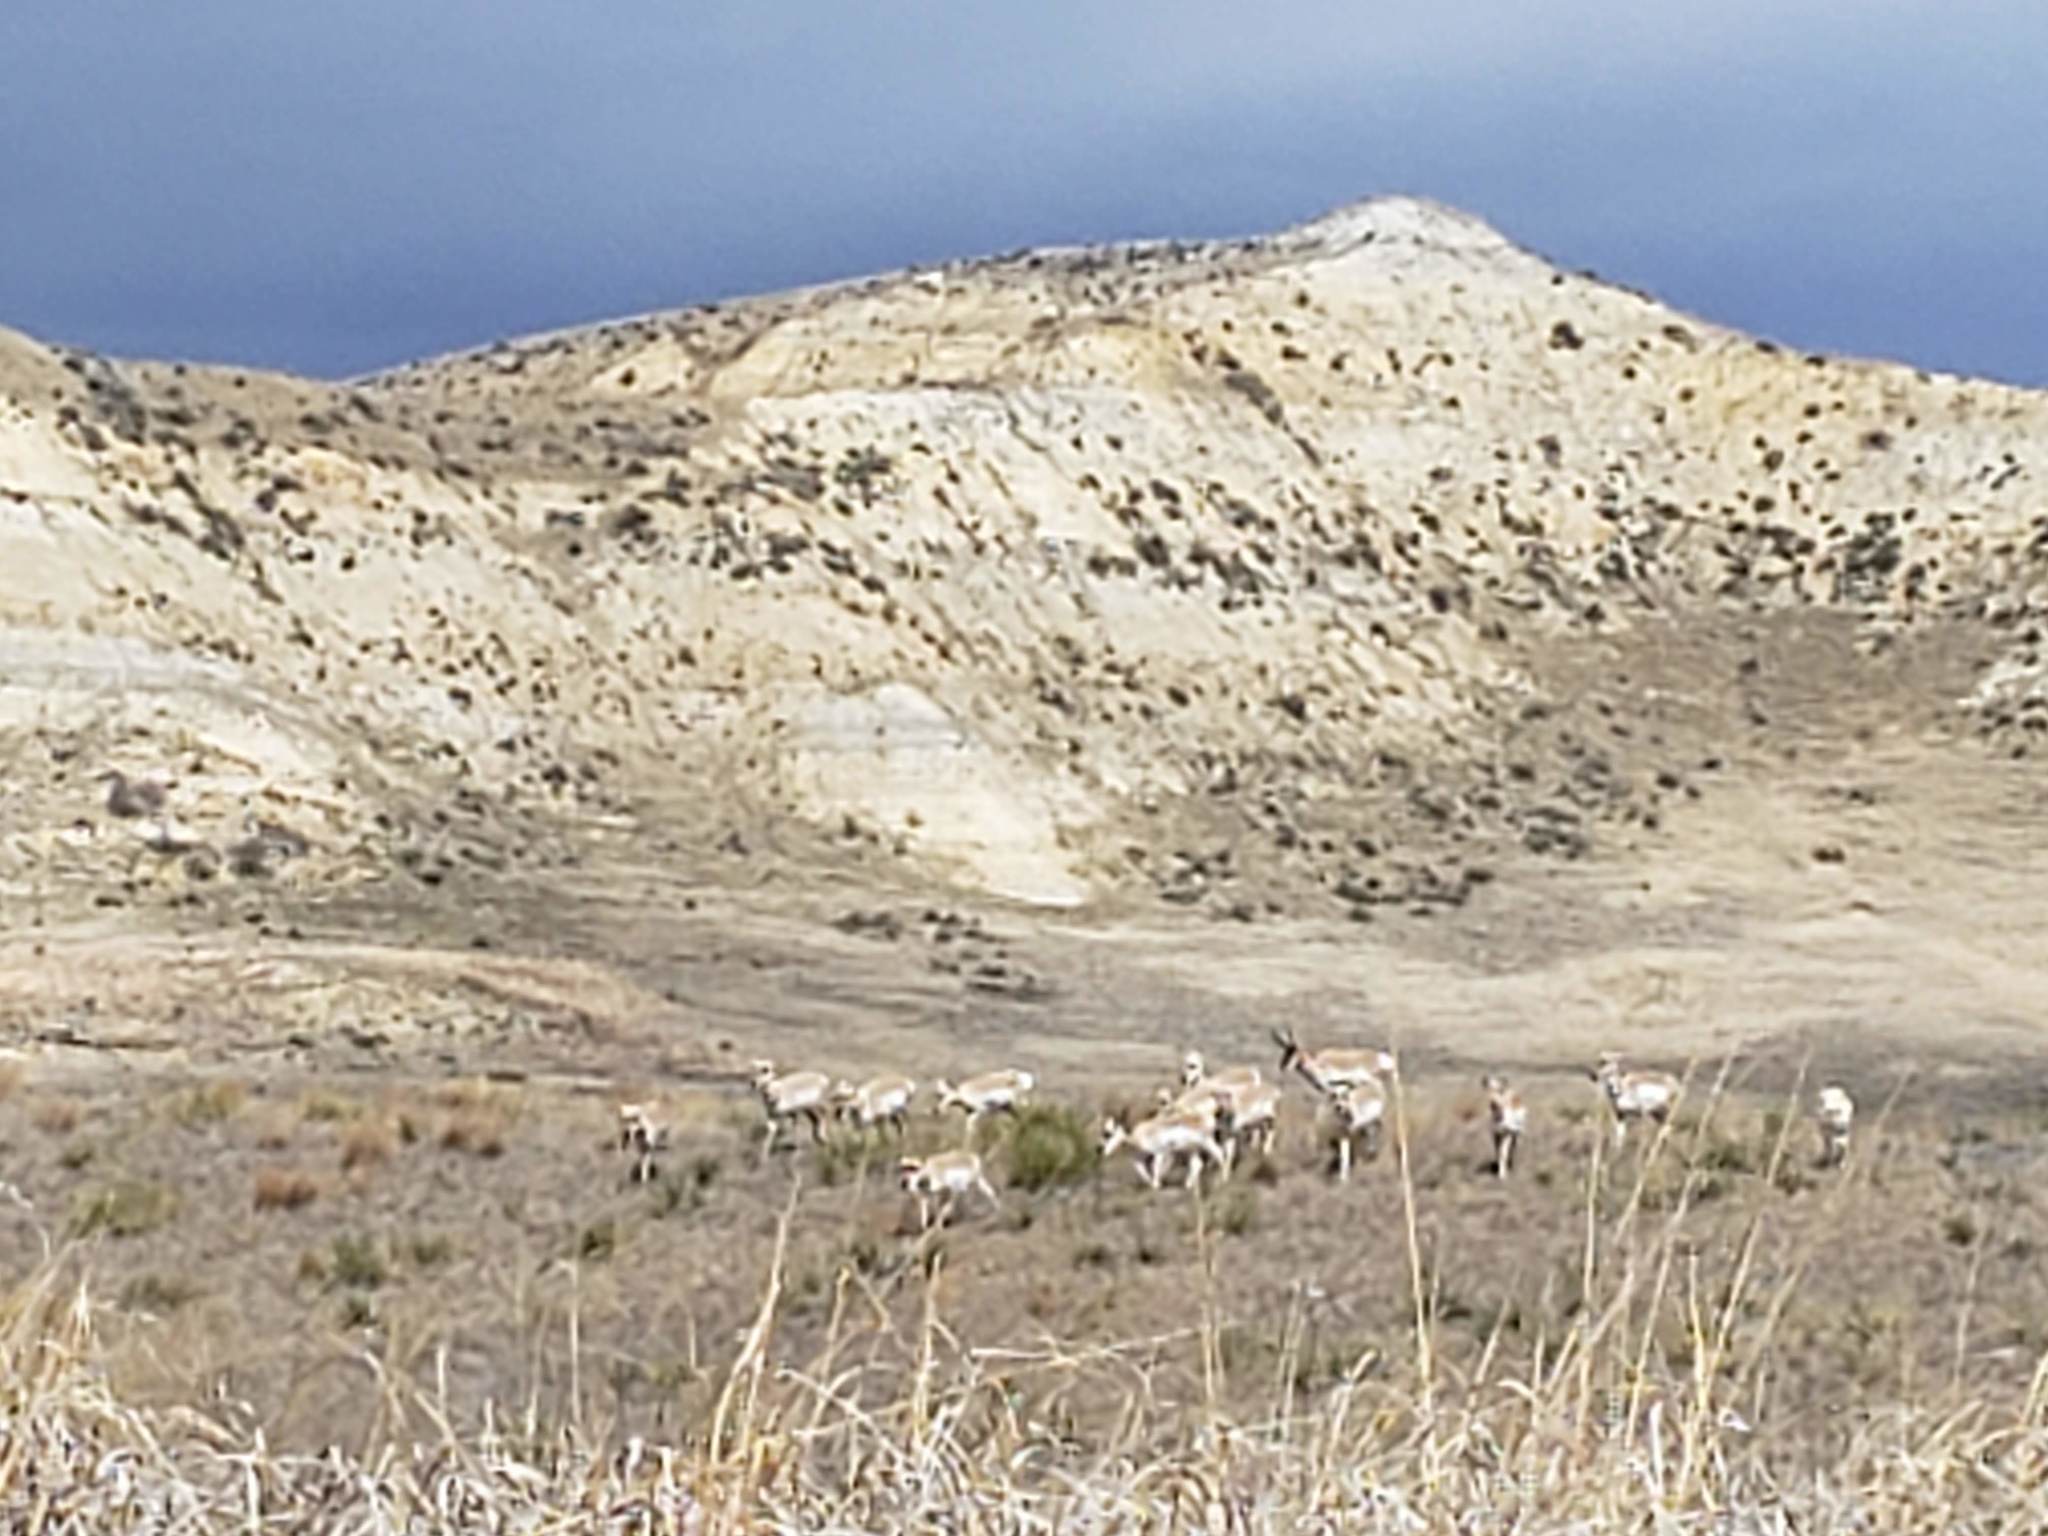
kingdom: Animalia
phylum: Chordata
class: Mammalia
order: Artiodactyla
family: Antilocapridae
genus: Antilocapra
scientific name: Antilocapra americana
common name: Pronghorn
